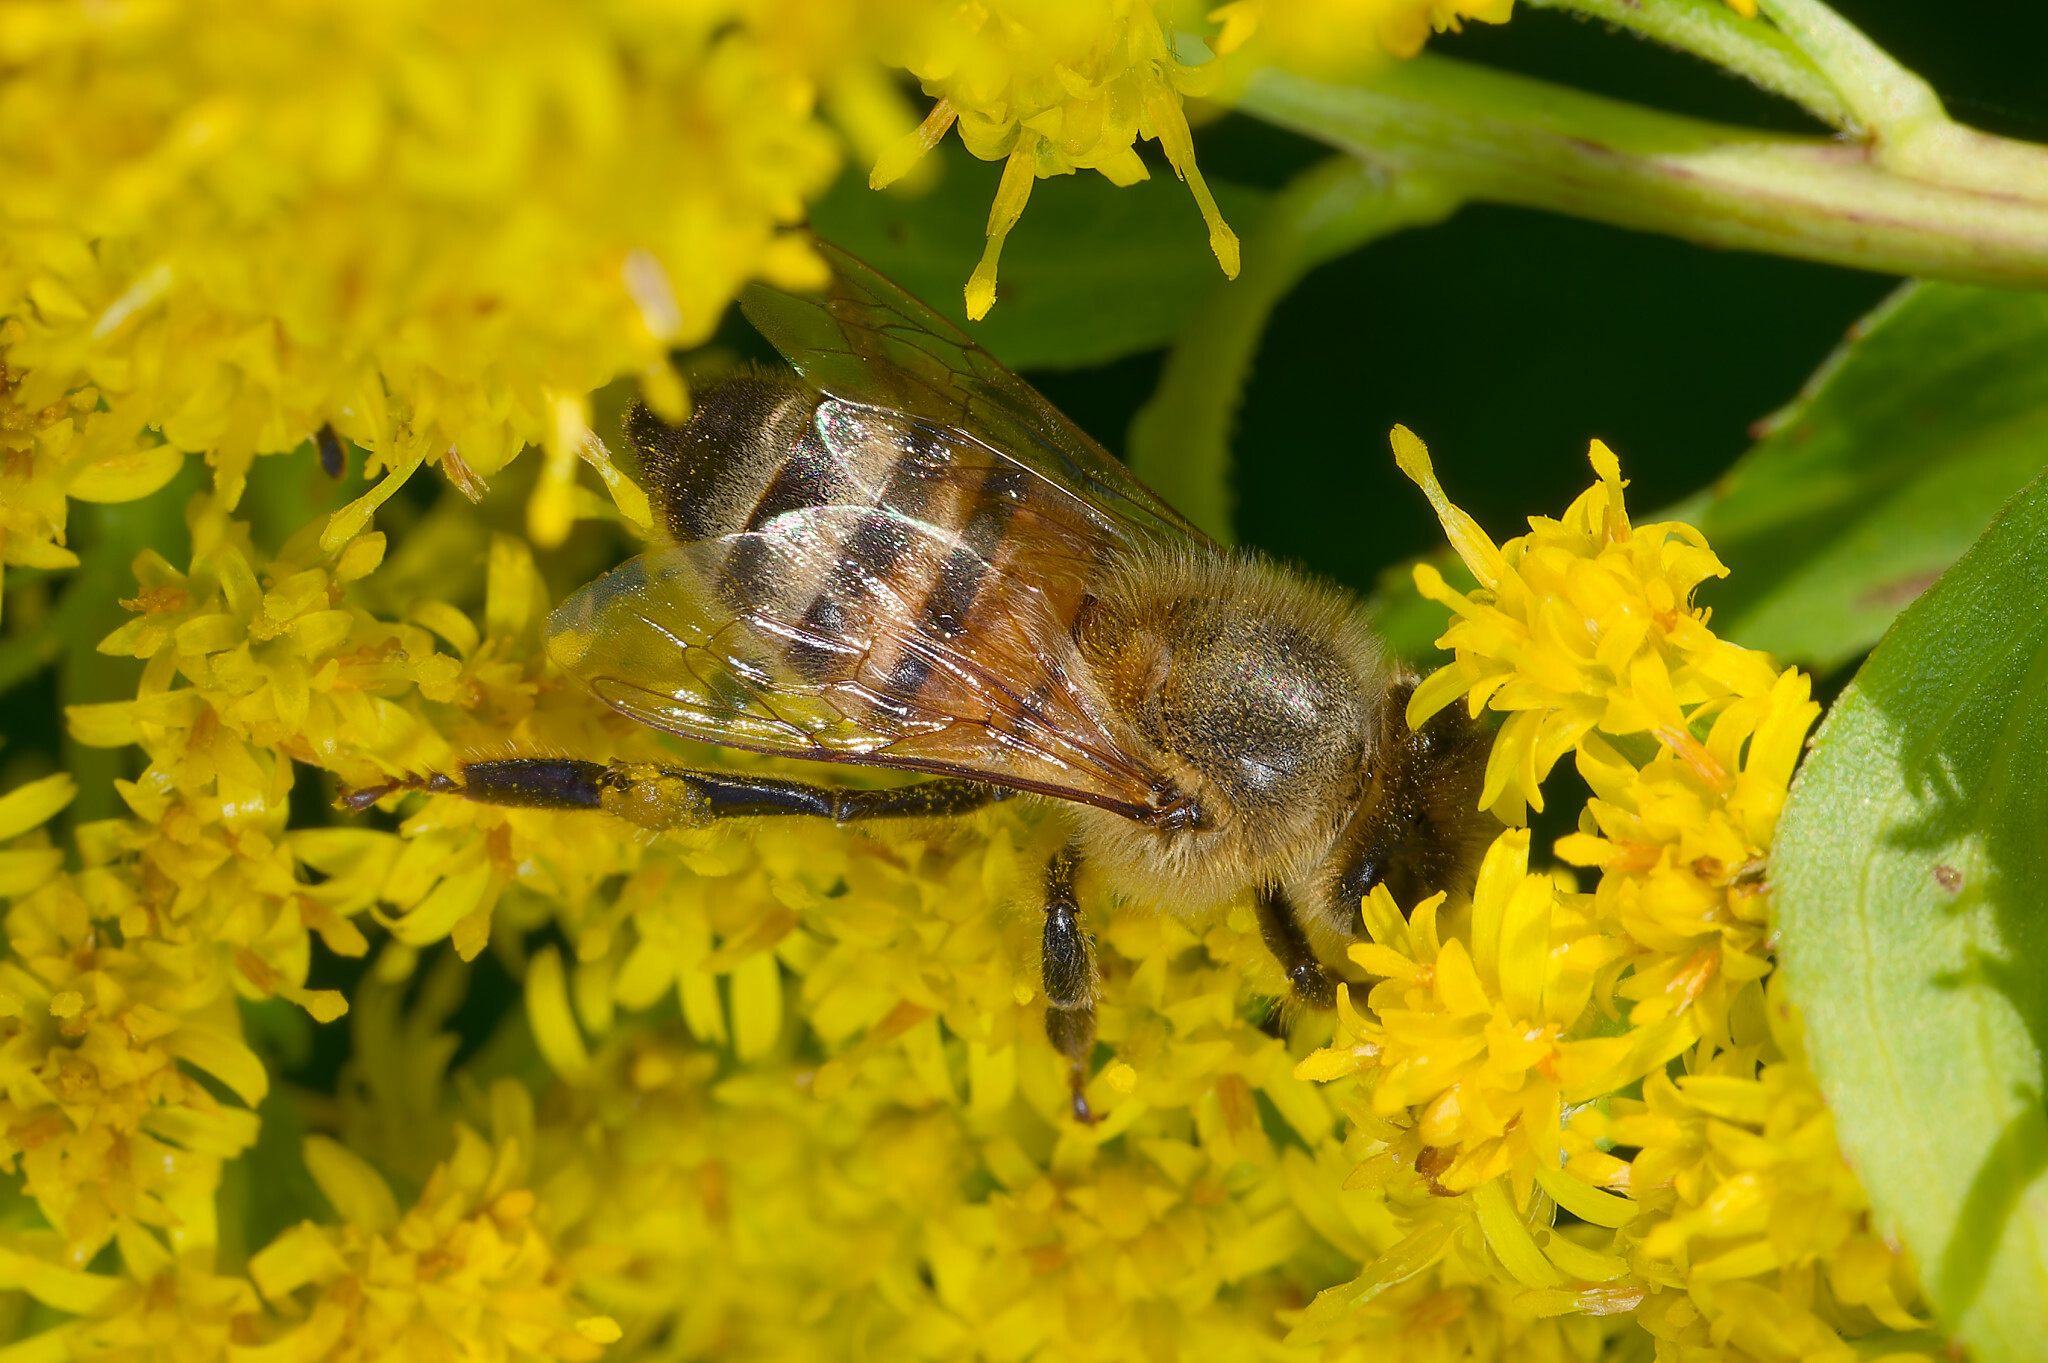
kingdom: Animalia
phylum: Arthropoda
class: Insecta
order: Hymenoptera
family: Apidae
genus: Apis
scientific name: Apis mellifera
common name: Honey bee
